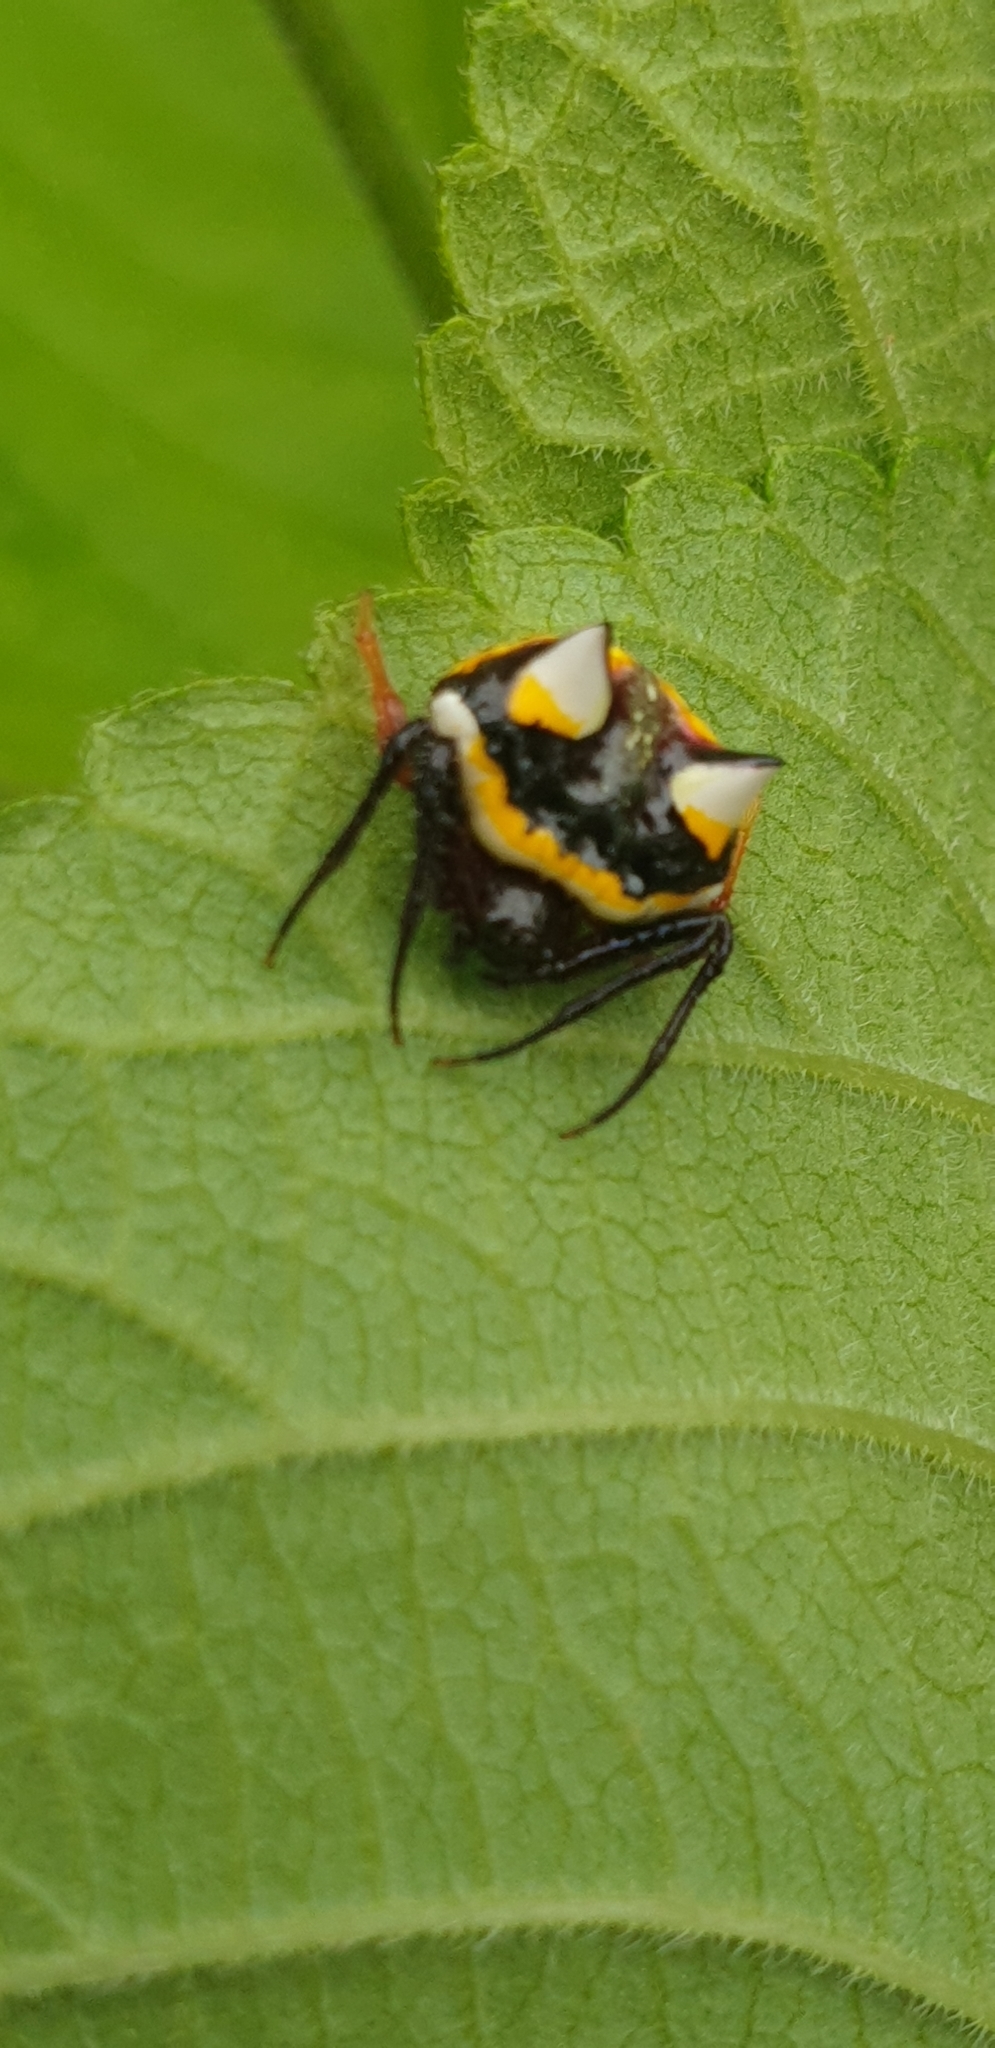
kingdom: Animalia
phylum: Arthropoda
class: Arachnida
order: Araneae
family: Araneidae
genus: Poecilopachys
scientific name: Poecilopachys australasia
